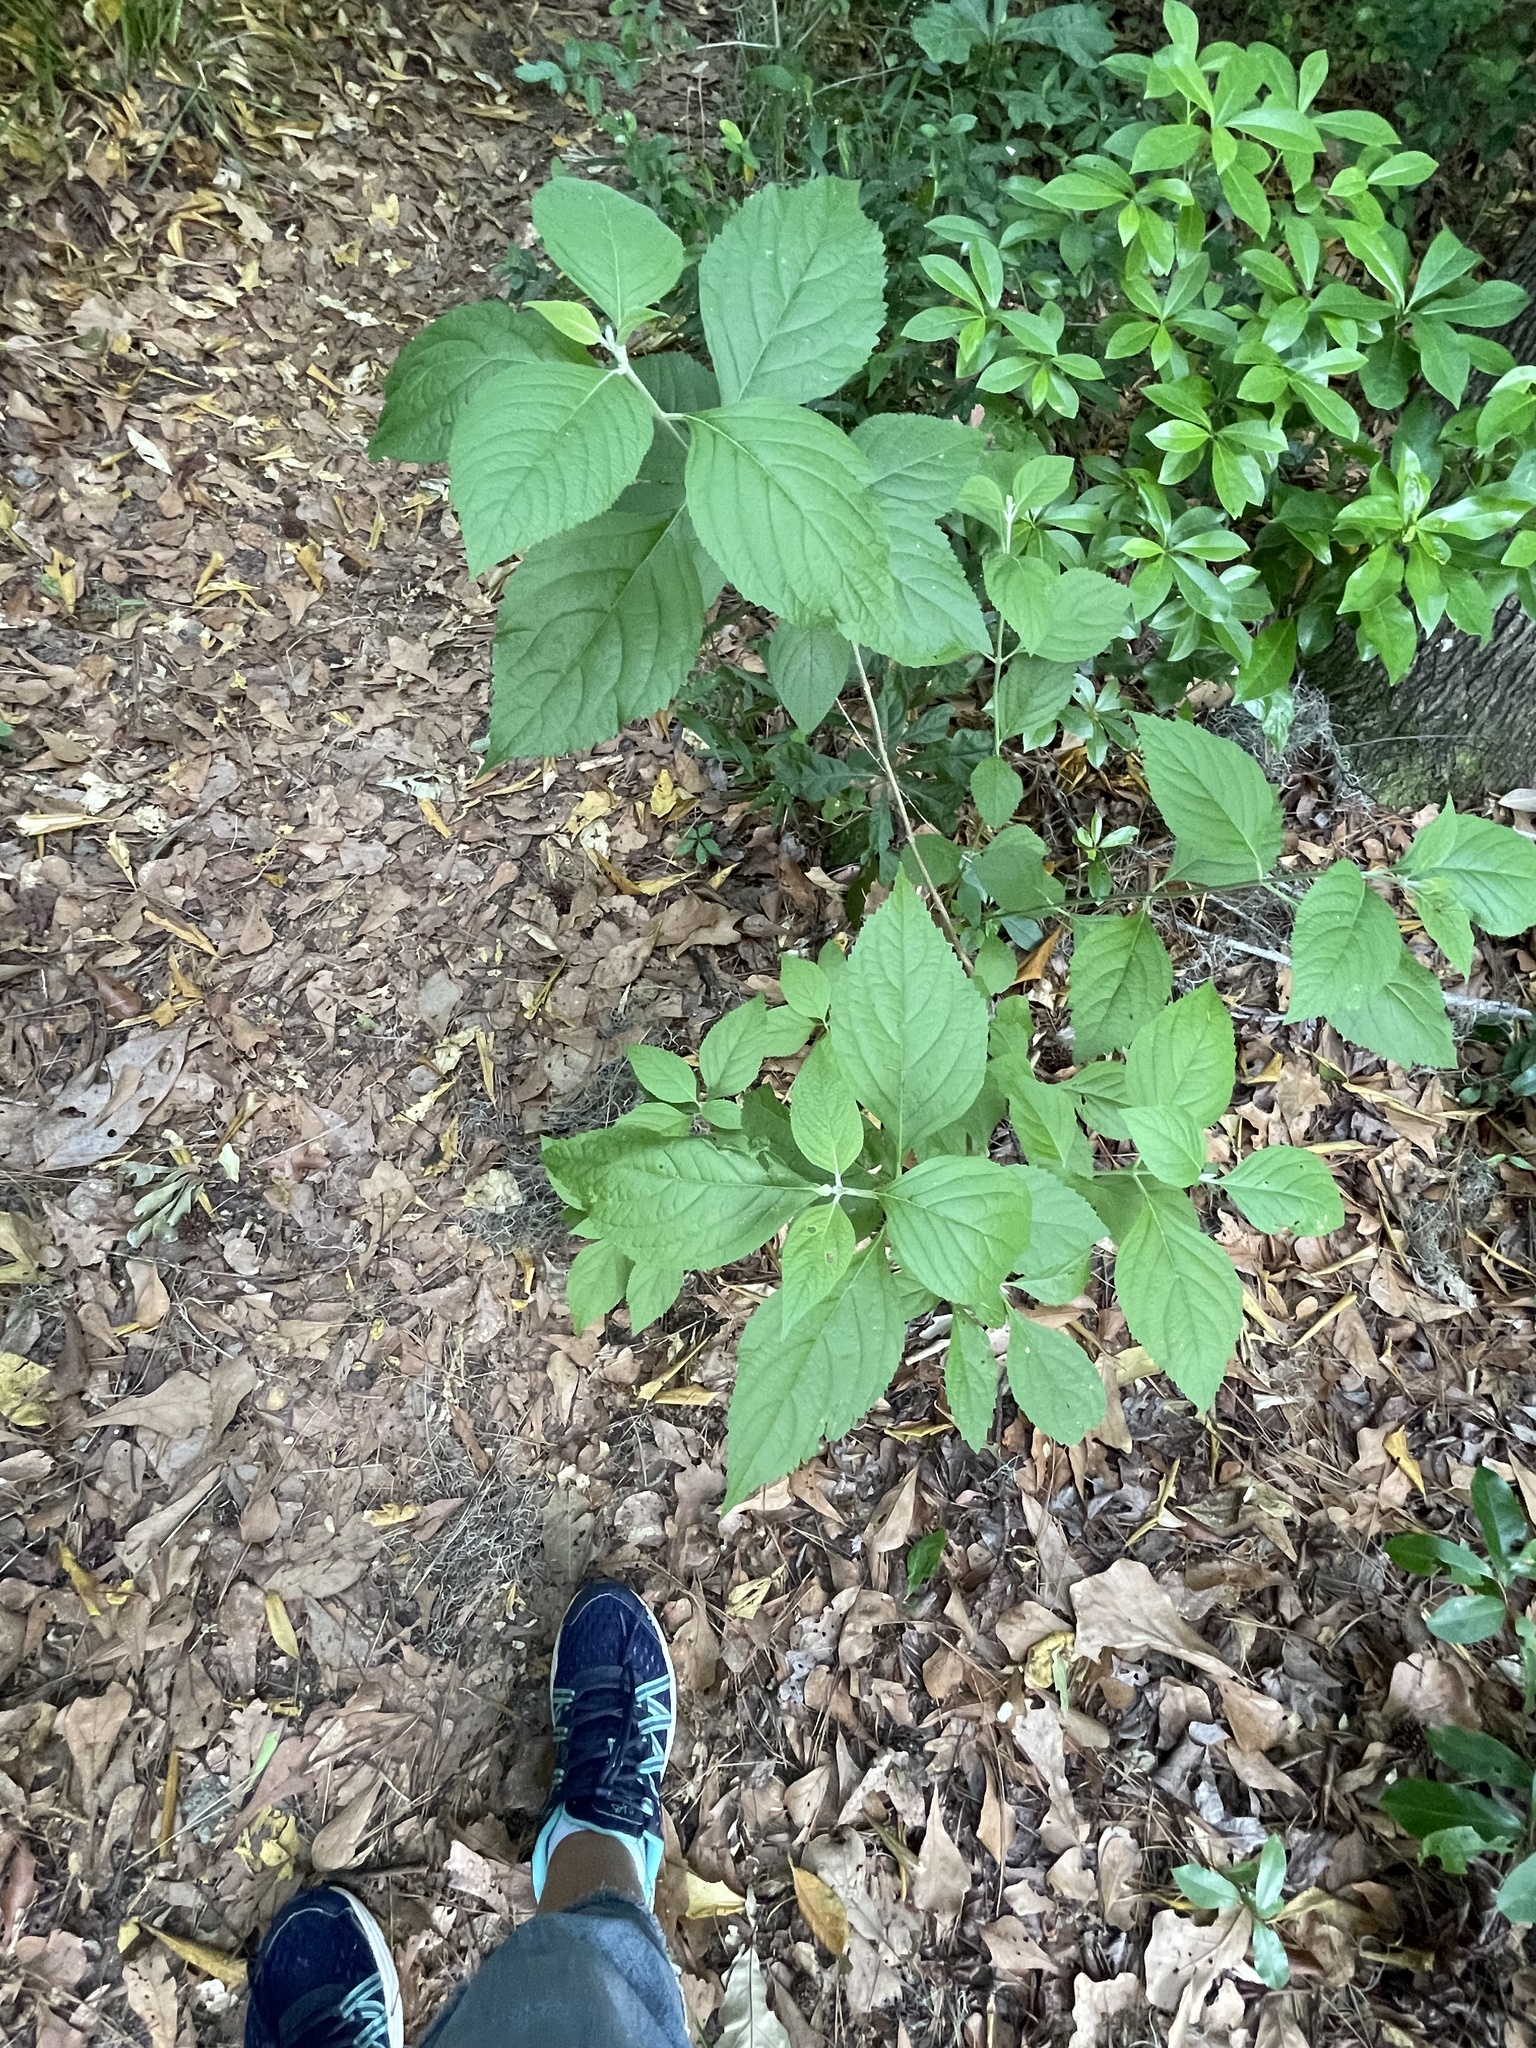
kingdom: Plantae
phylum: Tracheophyta
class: Magnoliopsida
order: Lamiales
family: Lamiaceae
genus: Callicarpa
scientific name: Callicarpa americana
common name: American beautyberry
